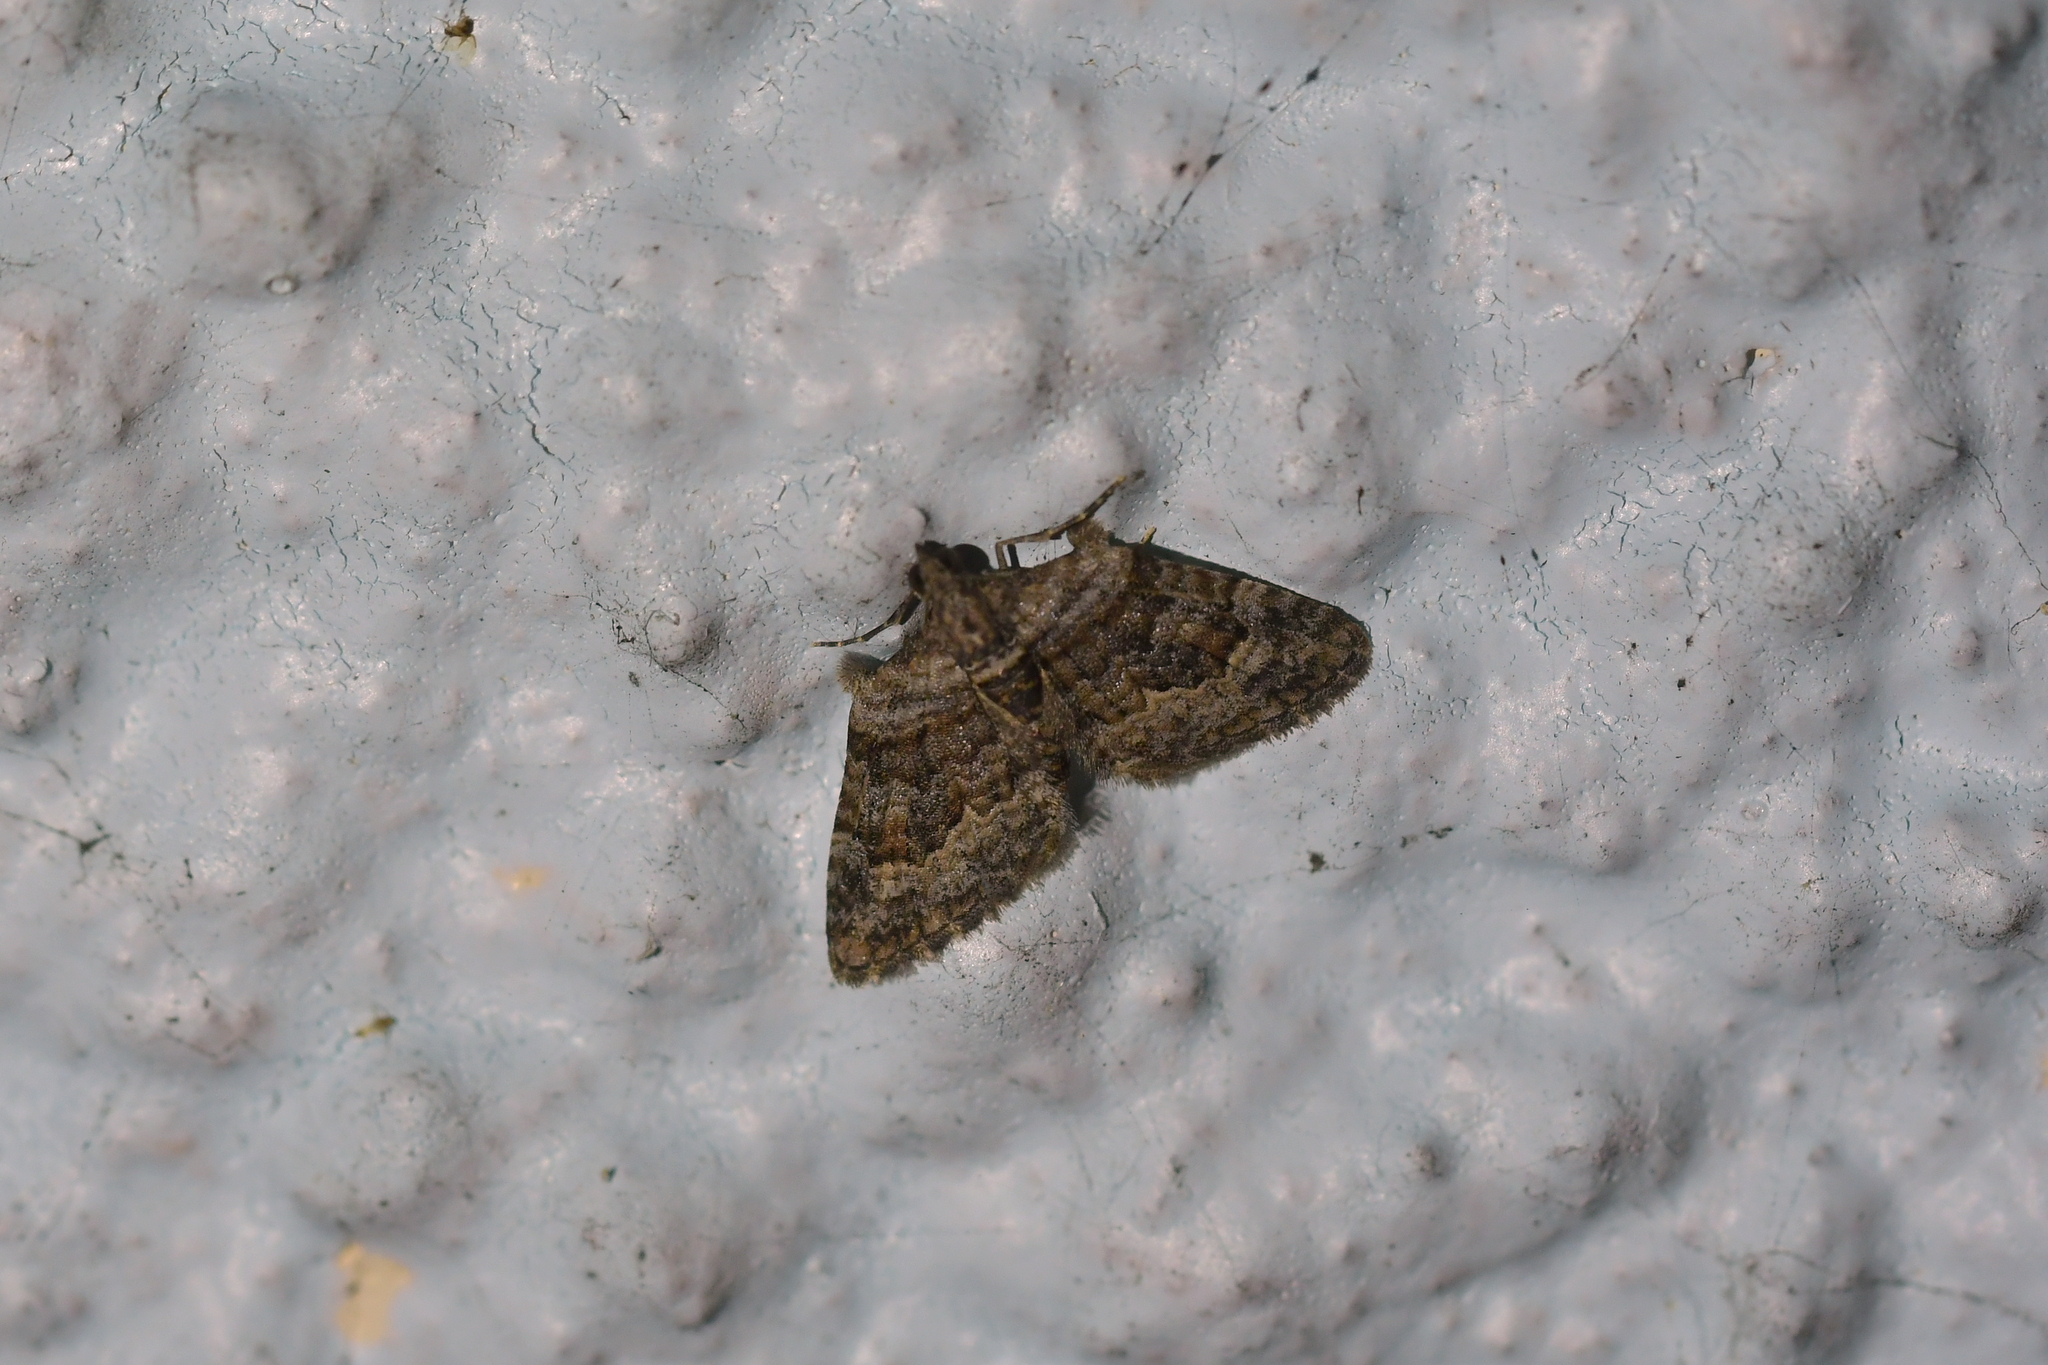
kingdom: Animalia
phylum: Arthropoda
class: Insecta
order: Lepidoptera
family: Geometridae
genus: Phrissogonus
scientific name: Phrissogonus laticostata
